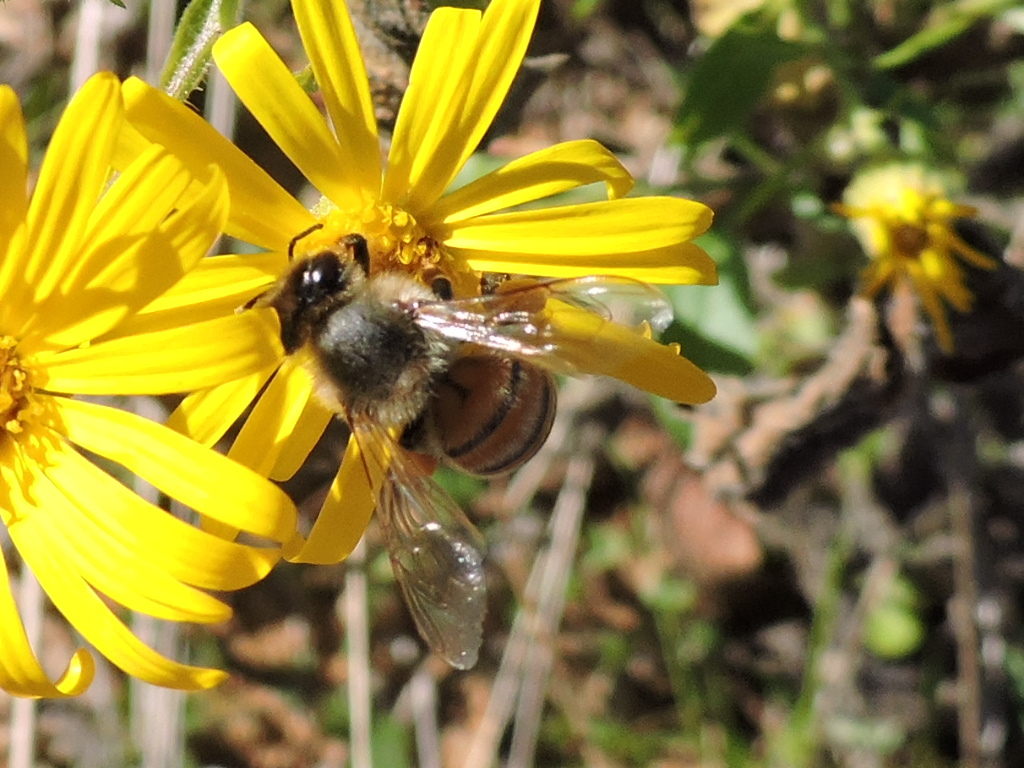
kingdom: Animalia
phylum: Arthropoda
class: Insecta
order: Hymenoptera
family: Apidae
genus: Apis
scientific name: Apis mellifera
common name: Honey bee
